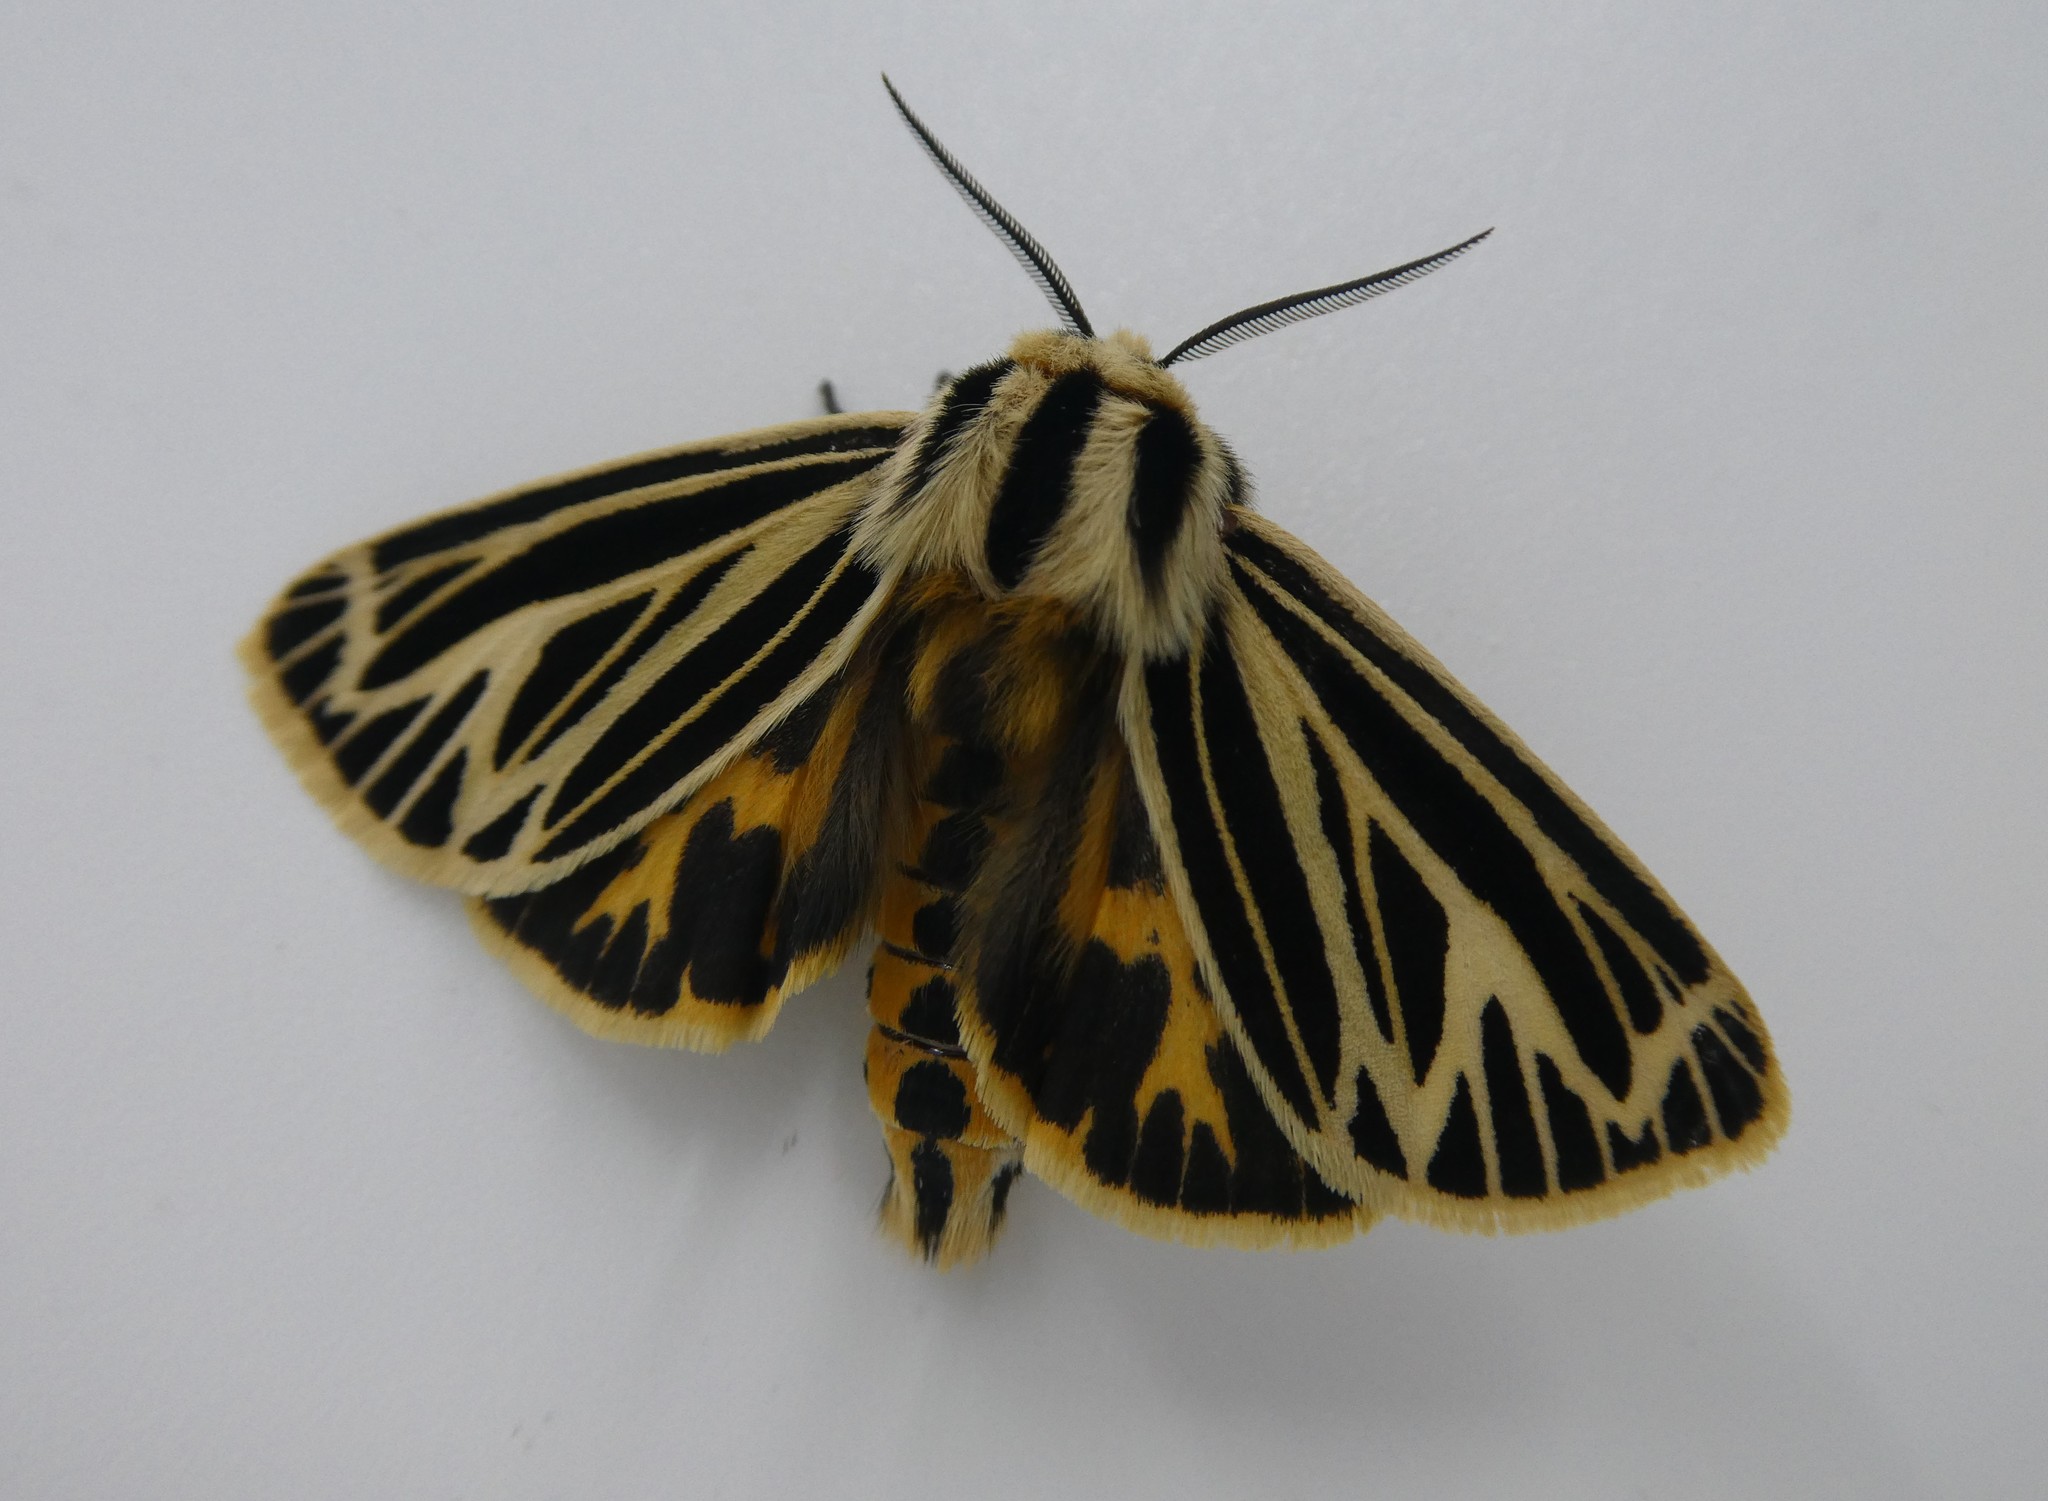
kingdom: Animalia
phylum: Arthropoda
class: Insecta
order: Lepidoptera
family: Erebidae
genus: Grammia
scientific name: Grammia virguncula
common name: Little tiger moth
